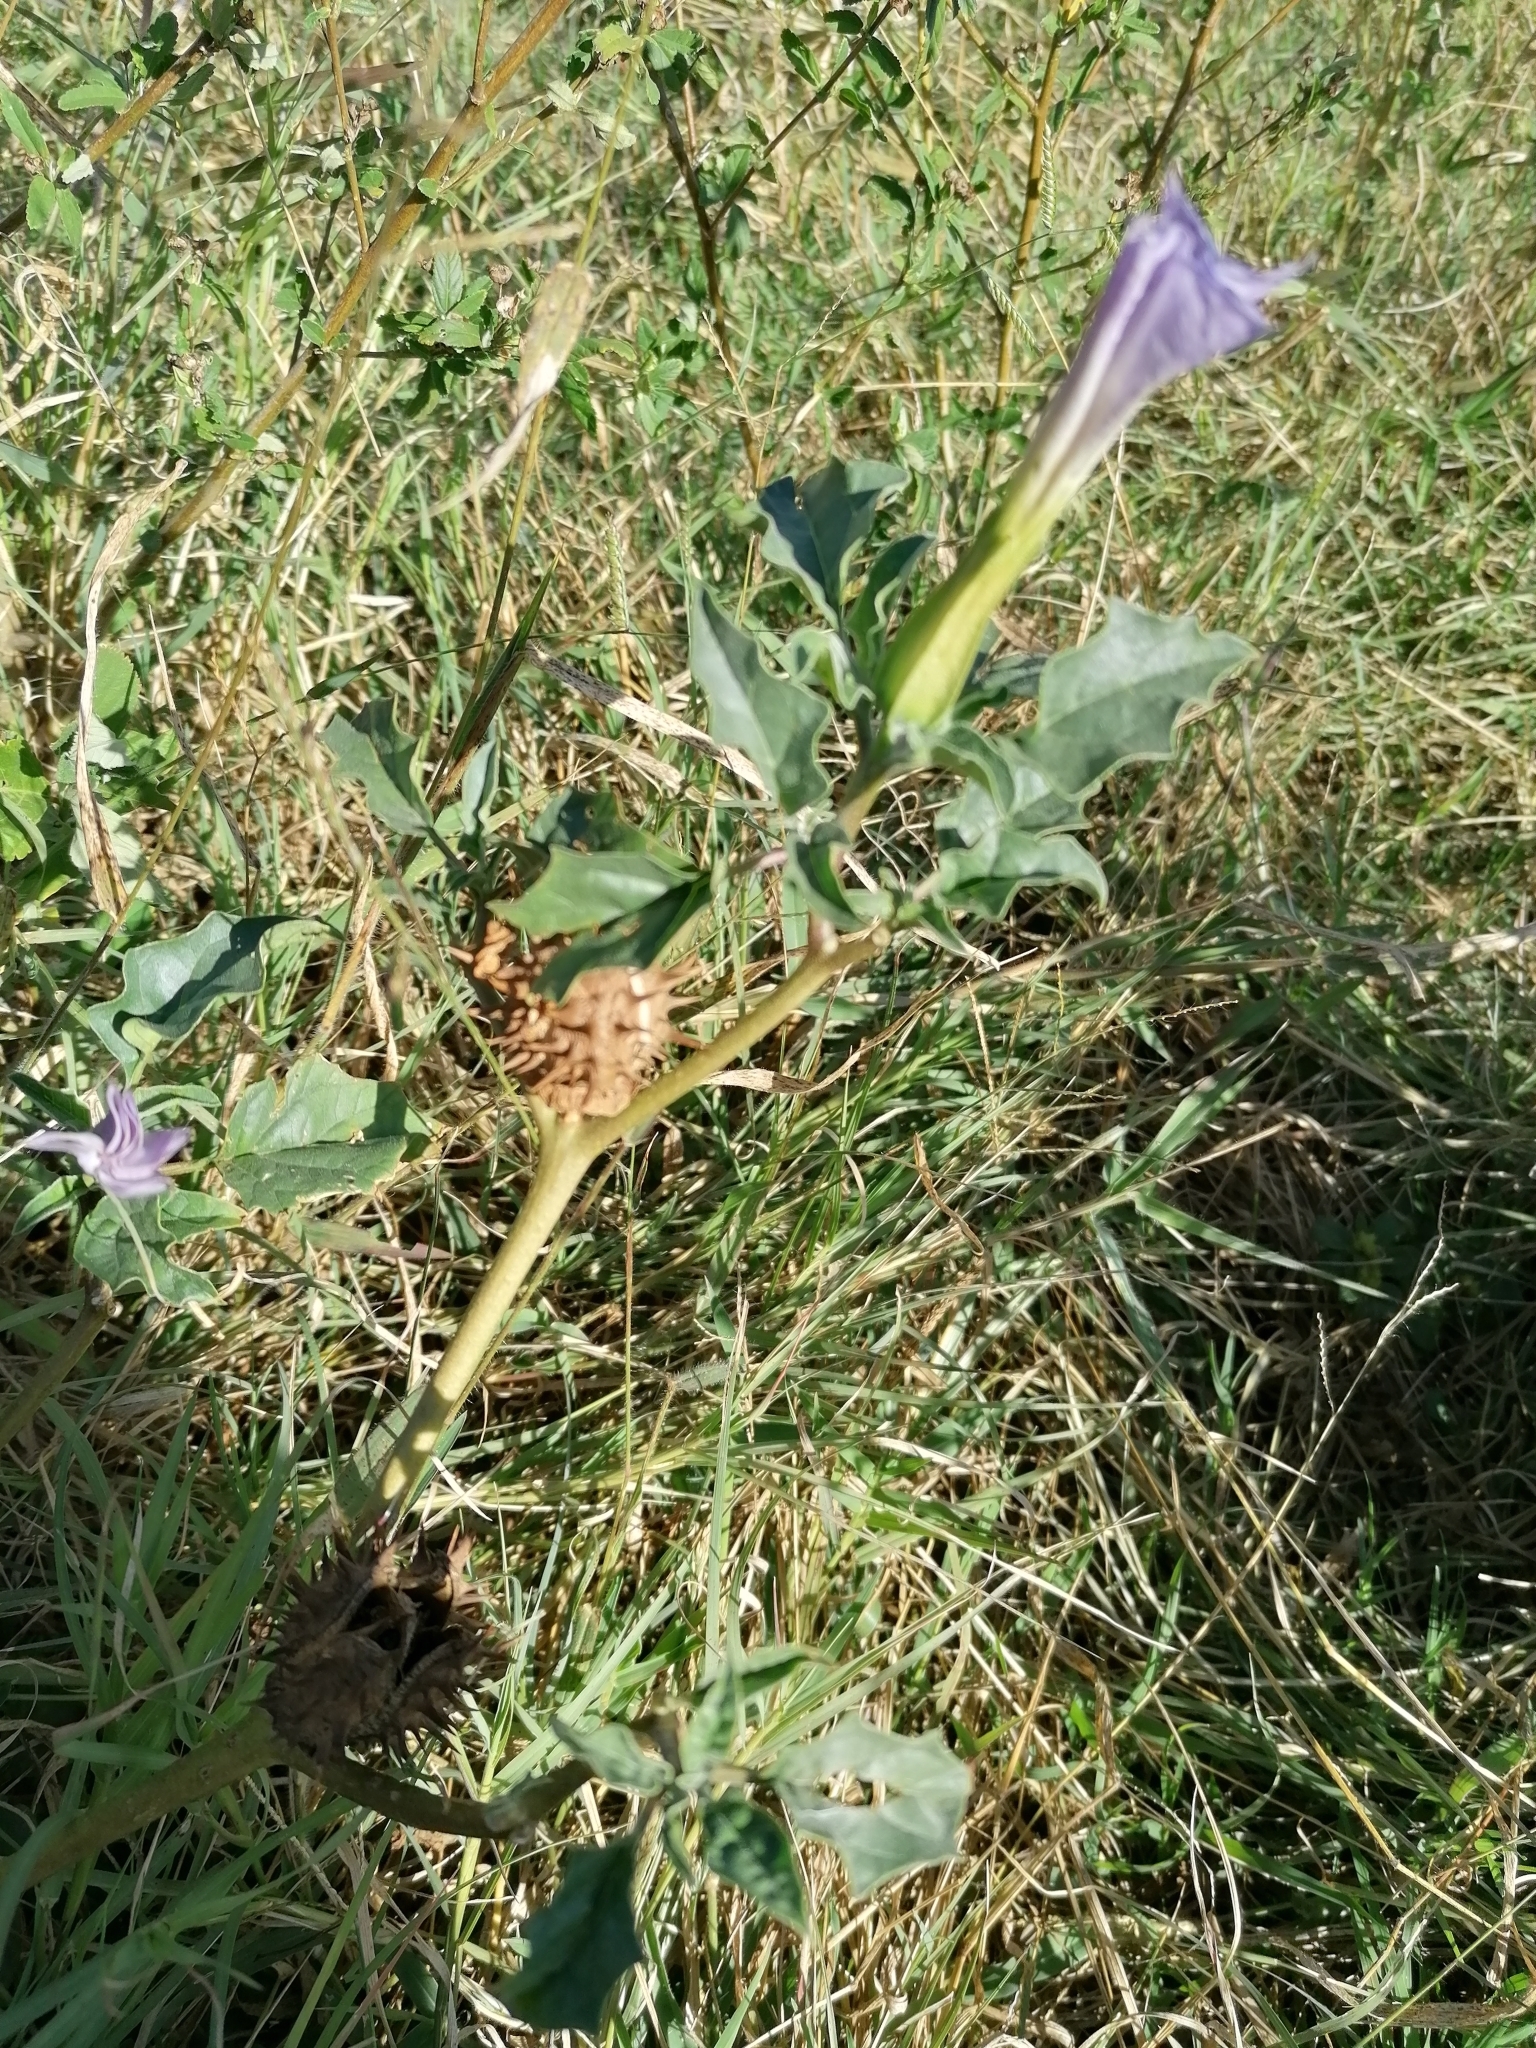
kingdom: Plantae
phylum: Tracheophyta
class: Magnoliopsida
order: Asterales
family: Asteraceae
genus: Flaveria
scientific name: Flaveria bidentis
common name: Coastal plain yellowtops
